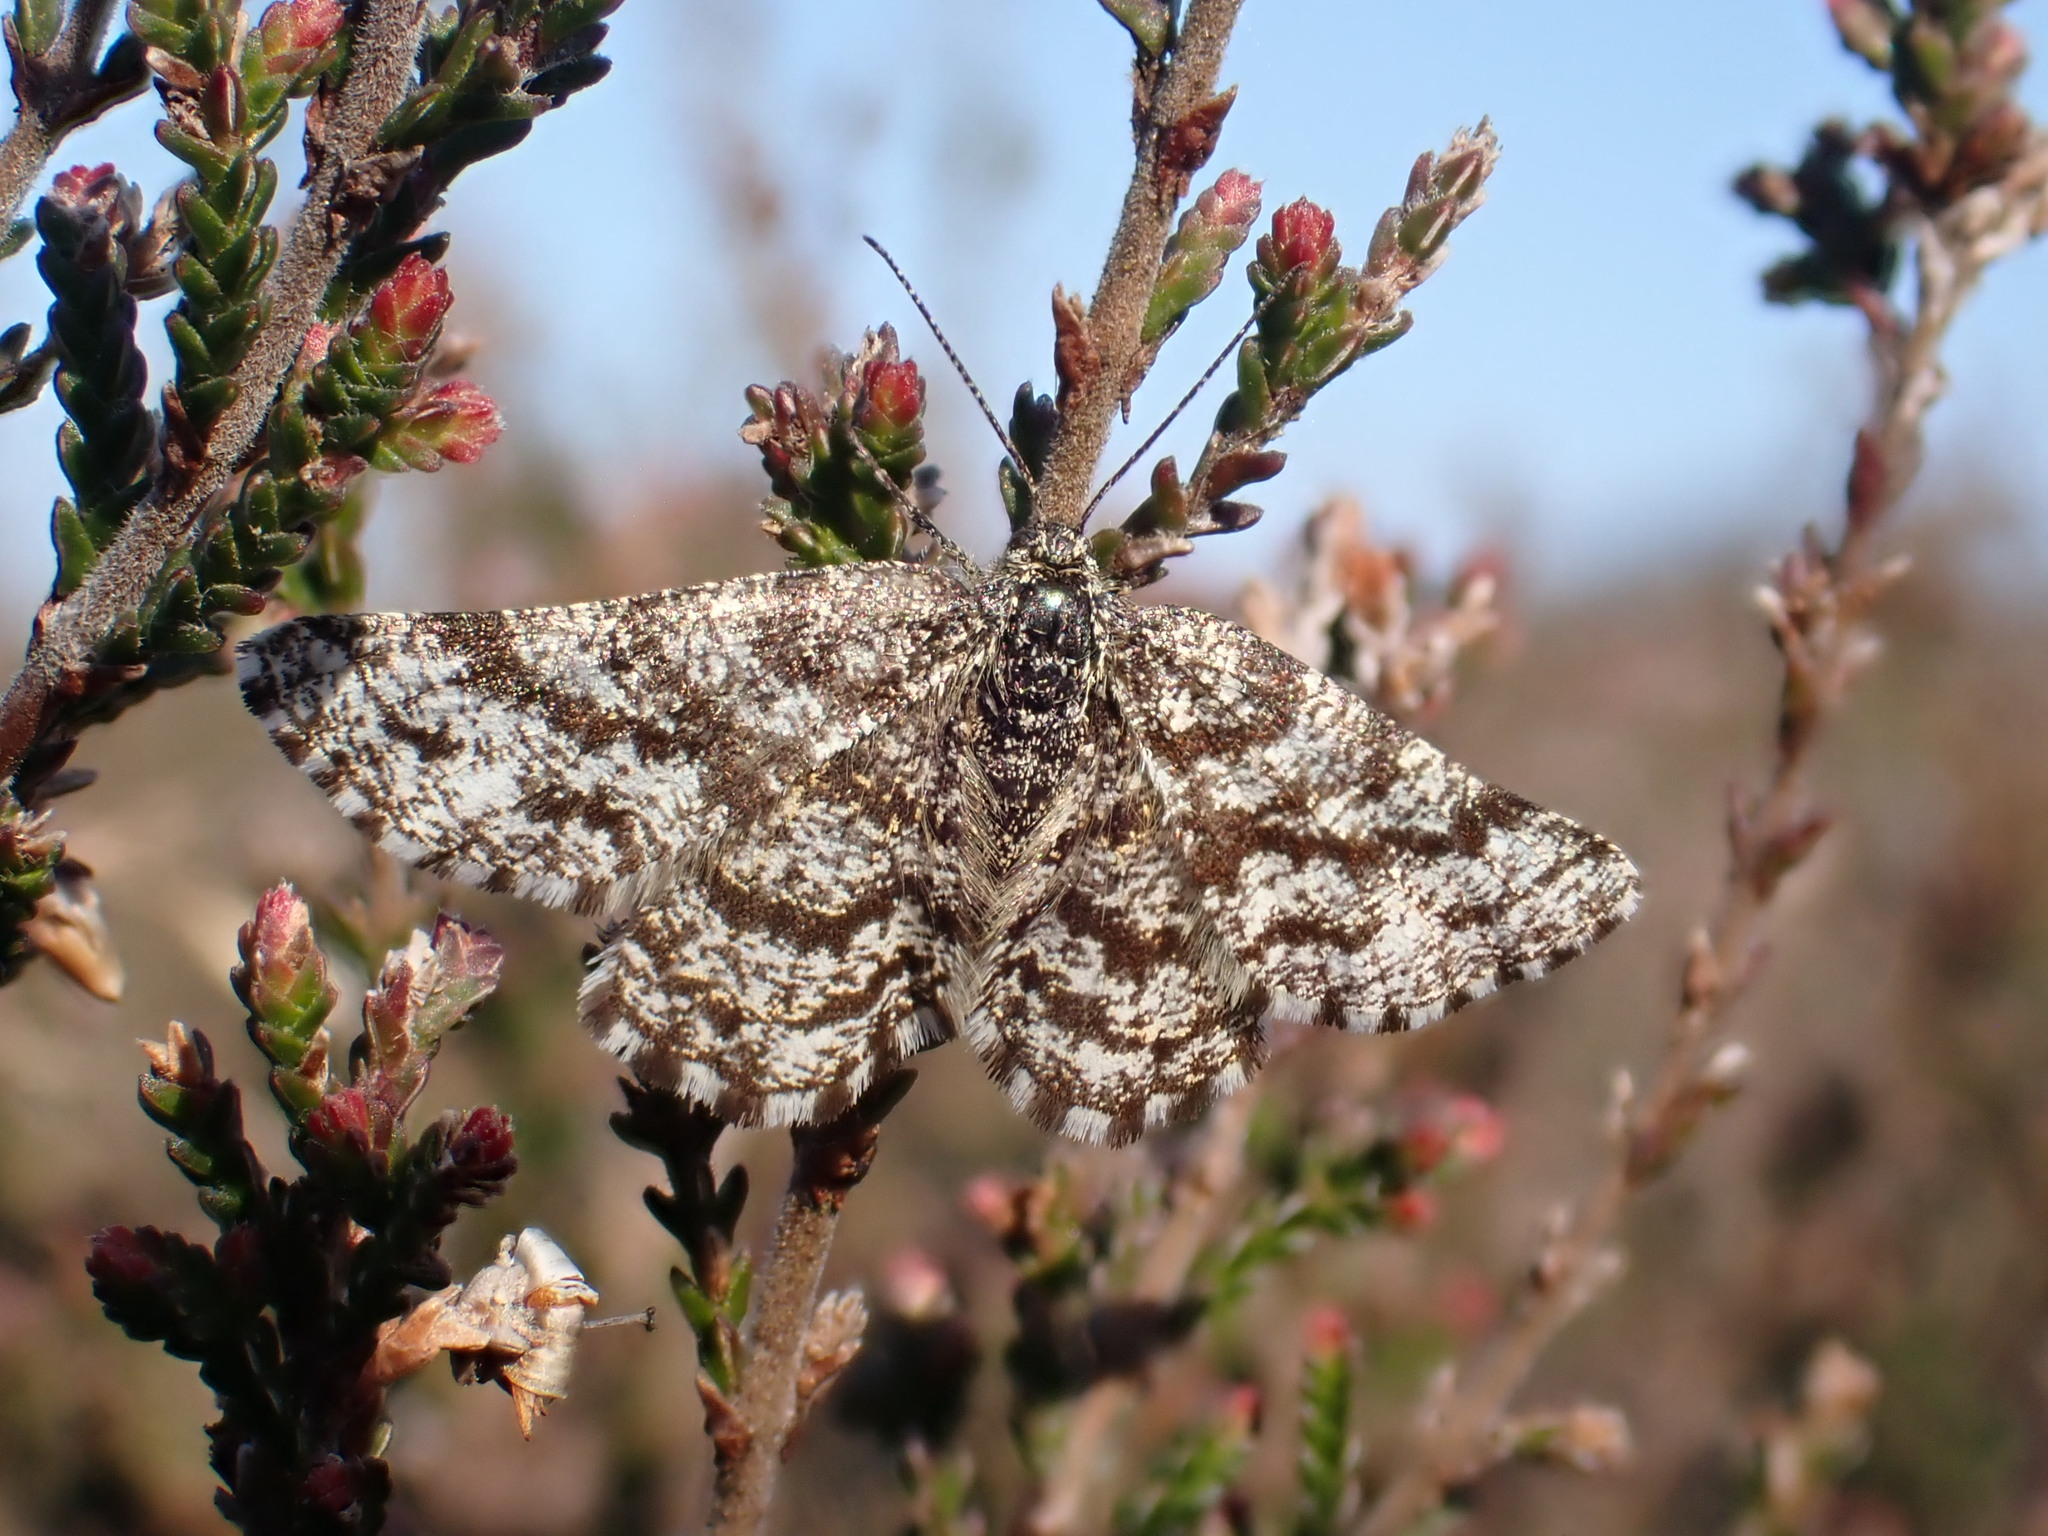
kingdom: Animalia
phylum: Arthropoda
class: Insecta
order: Lepidoptera
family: Geometridae
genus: Ematurga
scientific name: Ematurga atomaria
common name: Common heath
